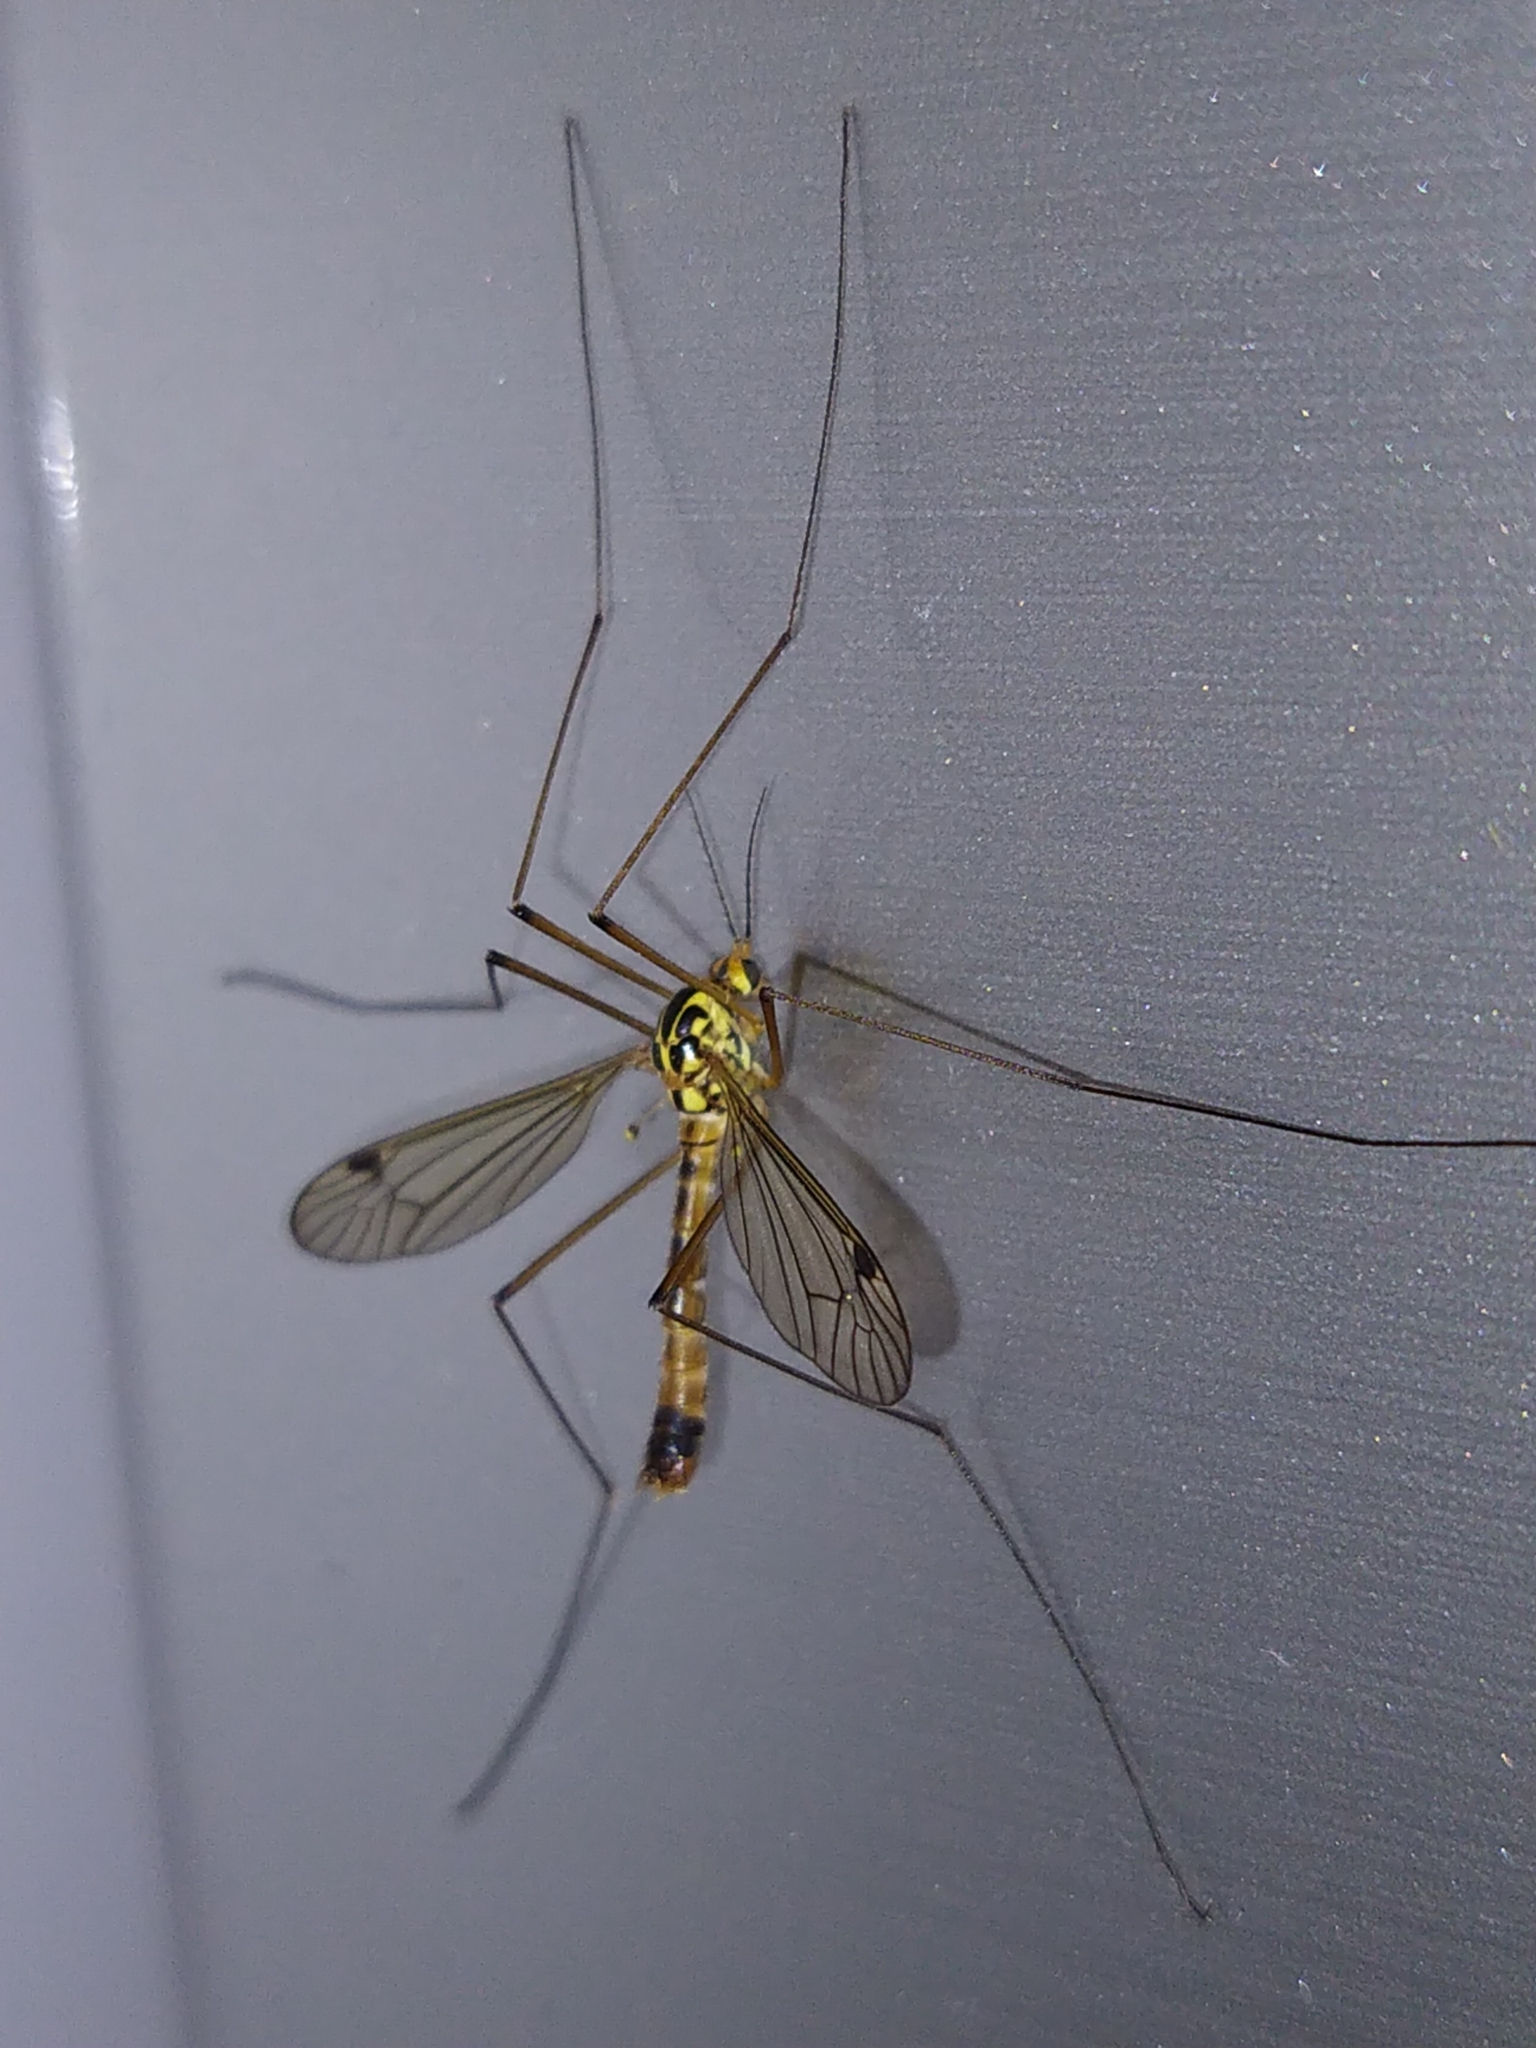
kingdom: Animalia
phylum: Arthropoda
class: Insecta
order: Diptera
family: Tipulidae
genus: Nephrotoma
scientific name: Nephrotoma guestfalica
